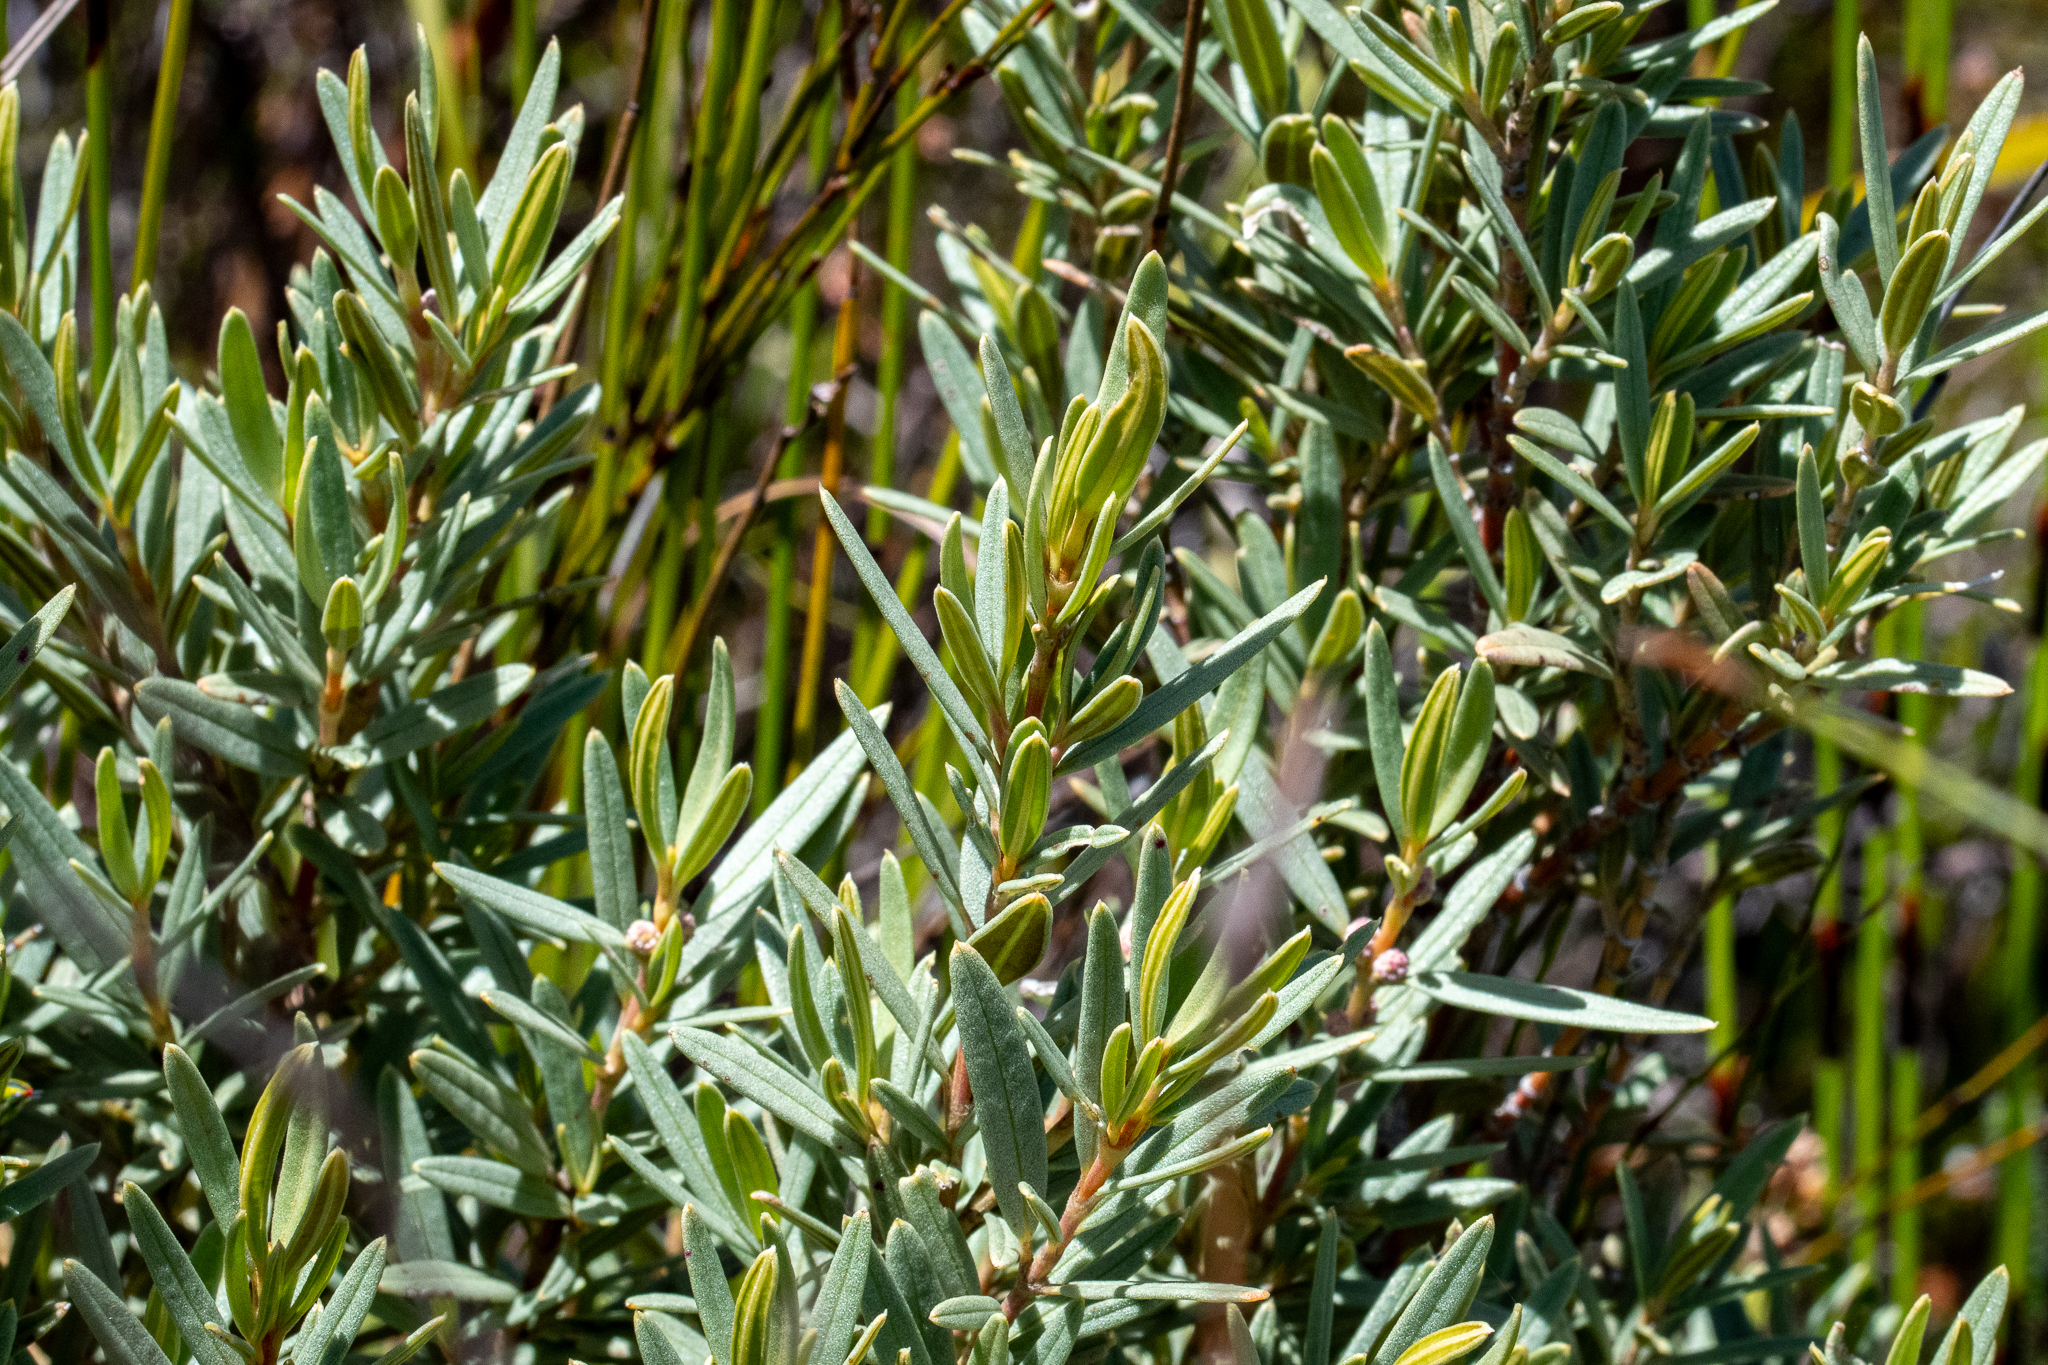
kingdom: Plantae
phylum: Tracheophyta
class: Magnoliopsida
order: Cornales
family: Grubbiaceae
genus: Grubbia
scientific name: Grubbia tomentosa
